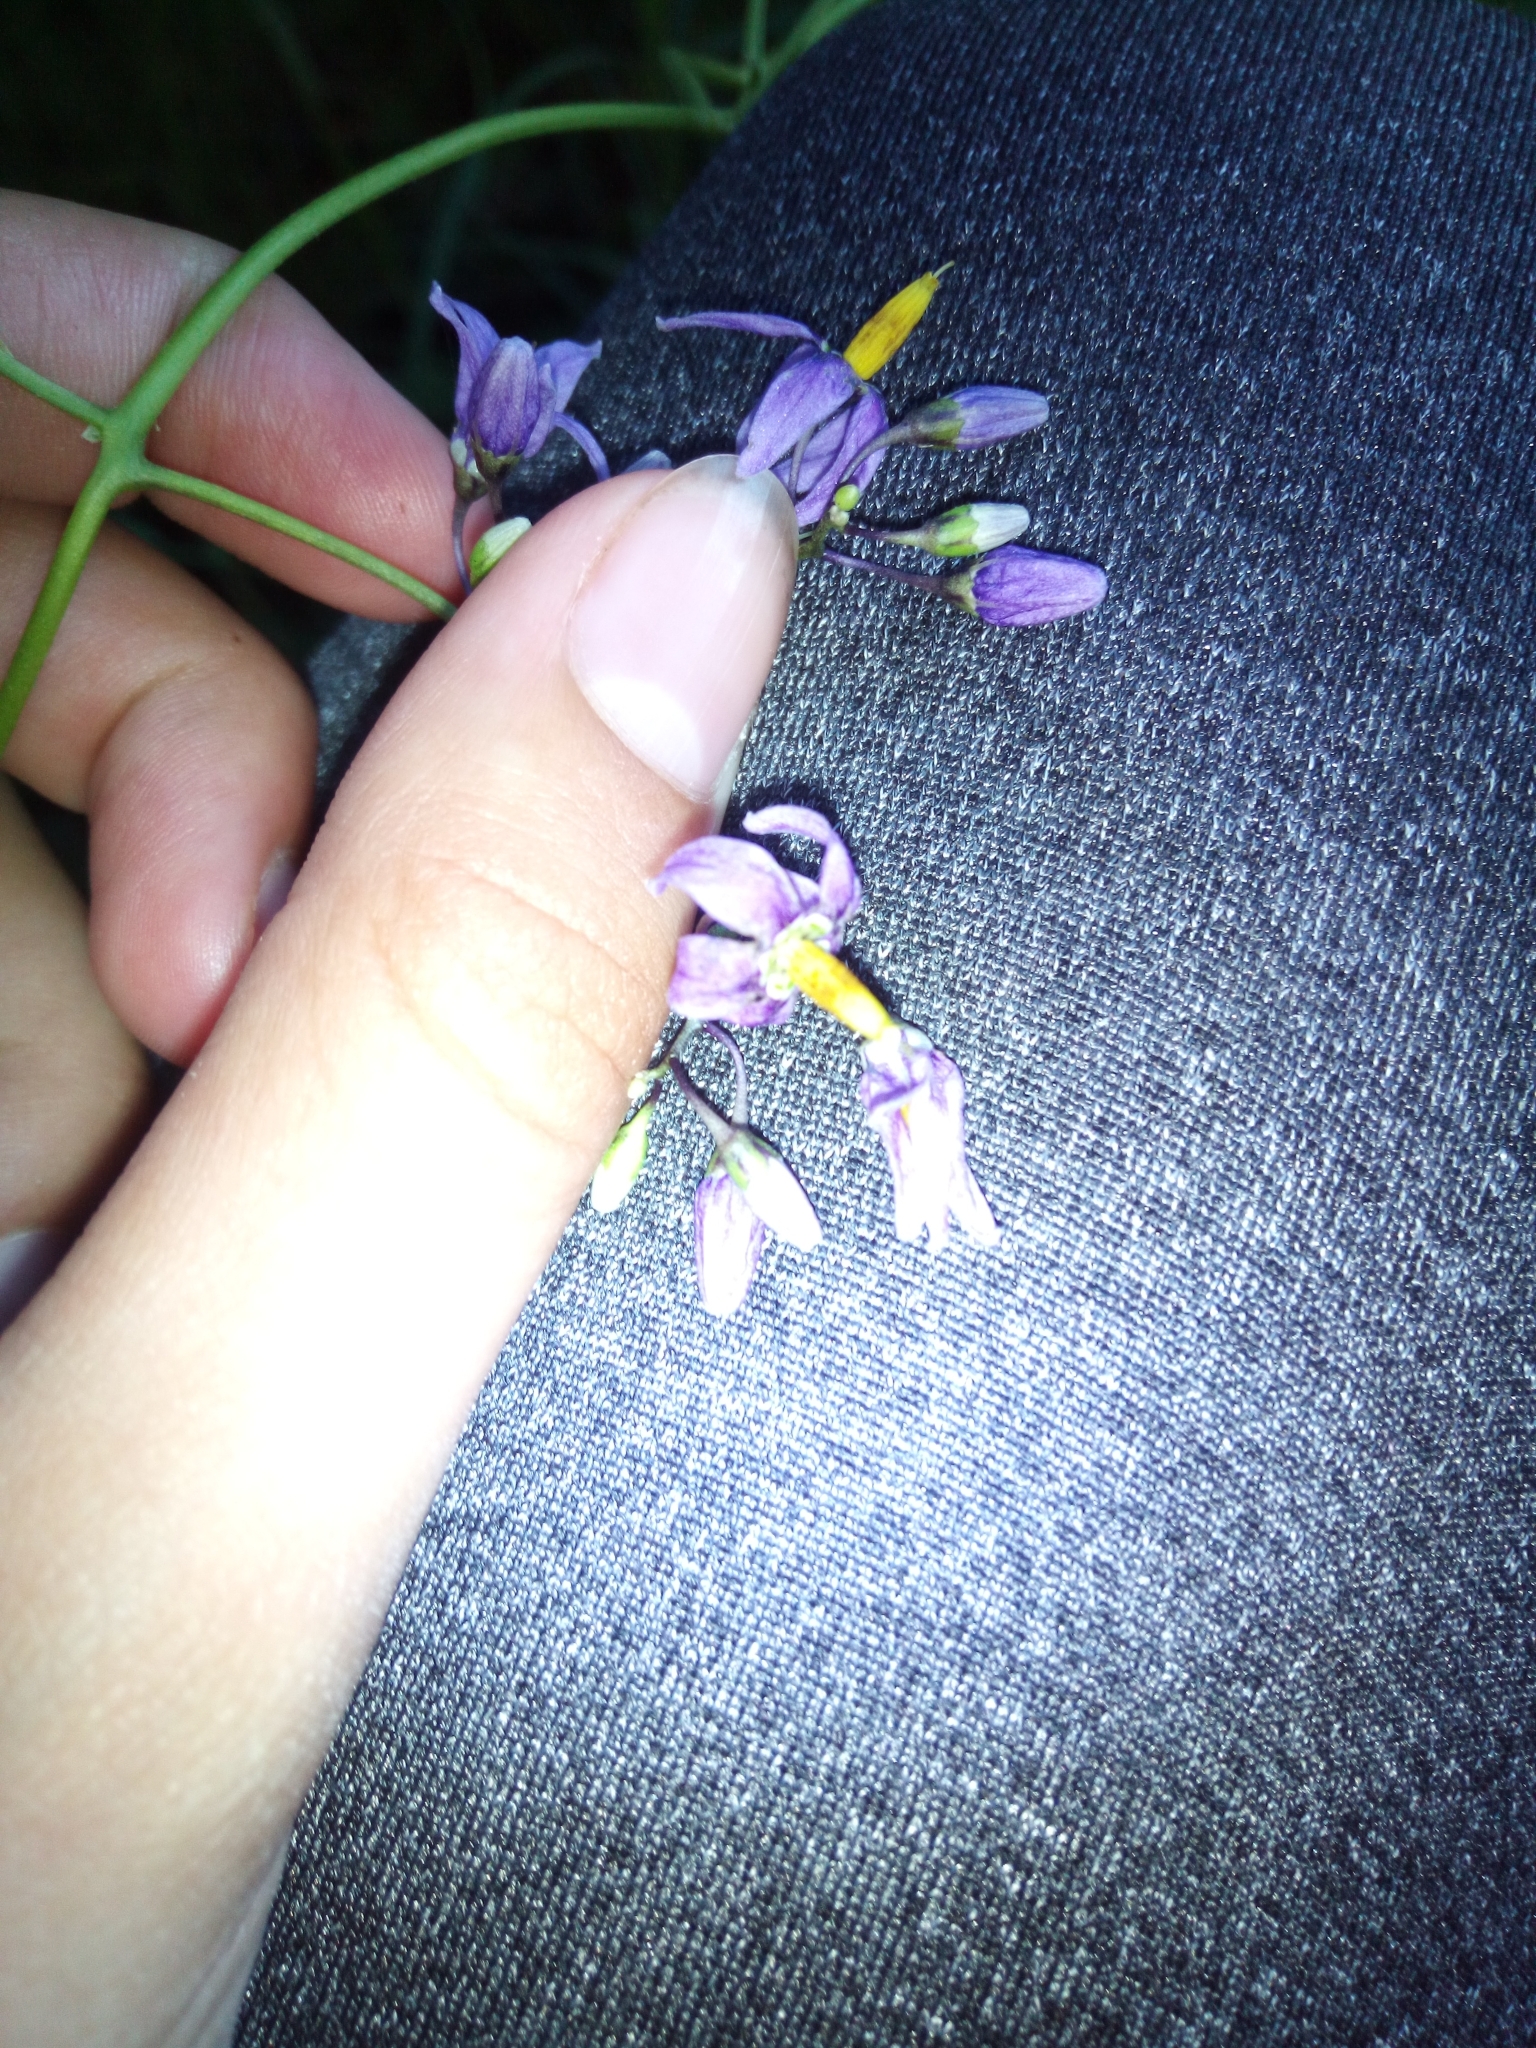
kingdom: Plantae
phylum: Tracheophyta
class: Magnoliopsida
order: Solanales
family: Solanaceae
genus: Solanum
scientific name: Solanum dulcamara
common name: Climbing nightshade
